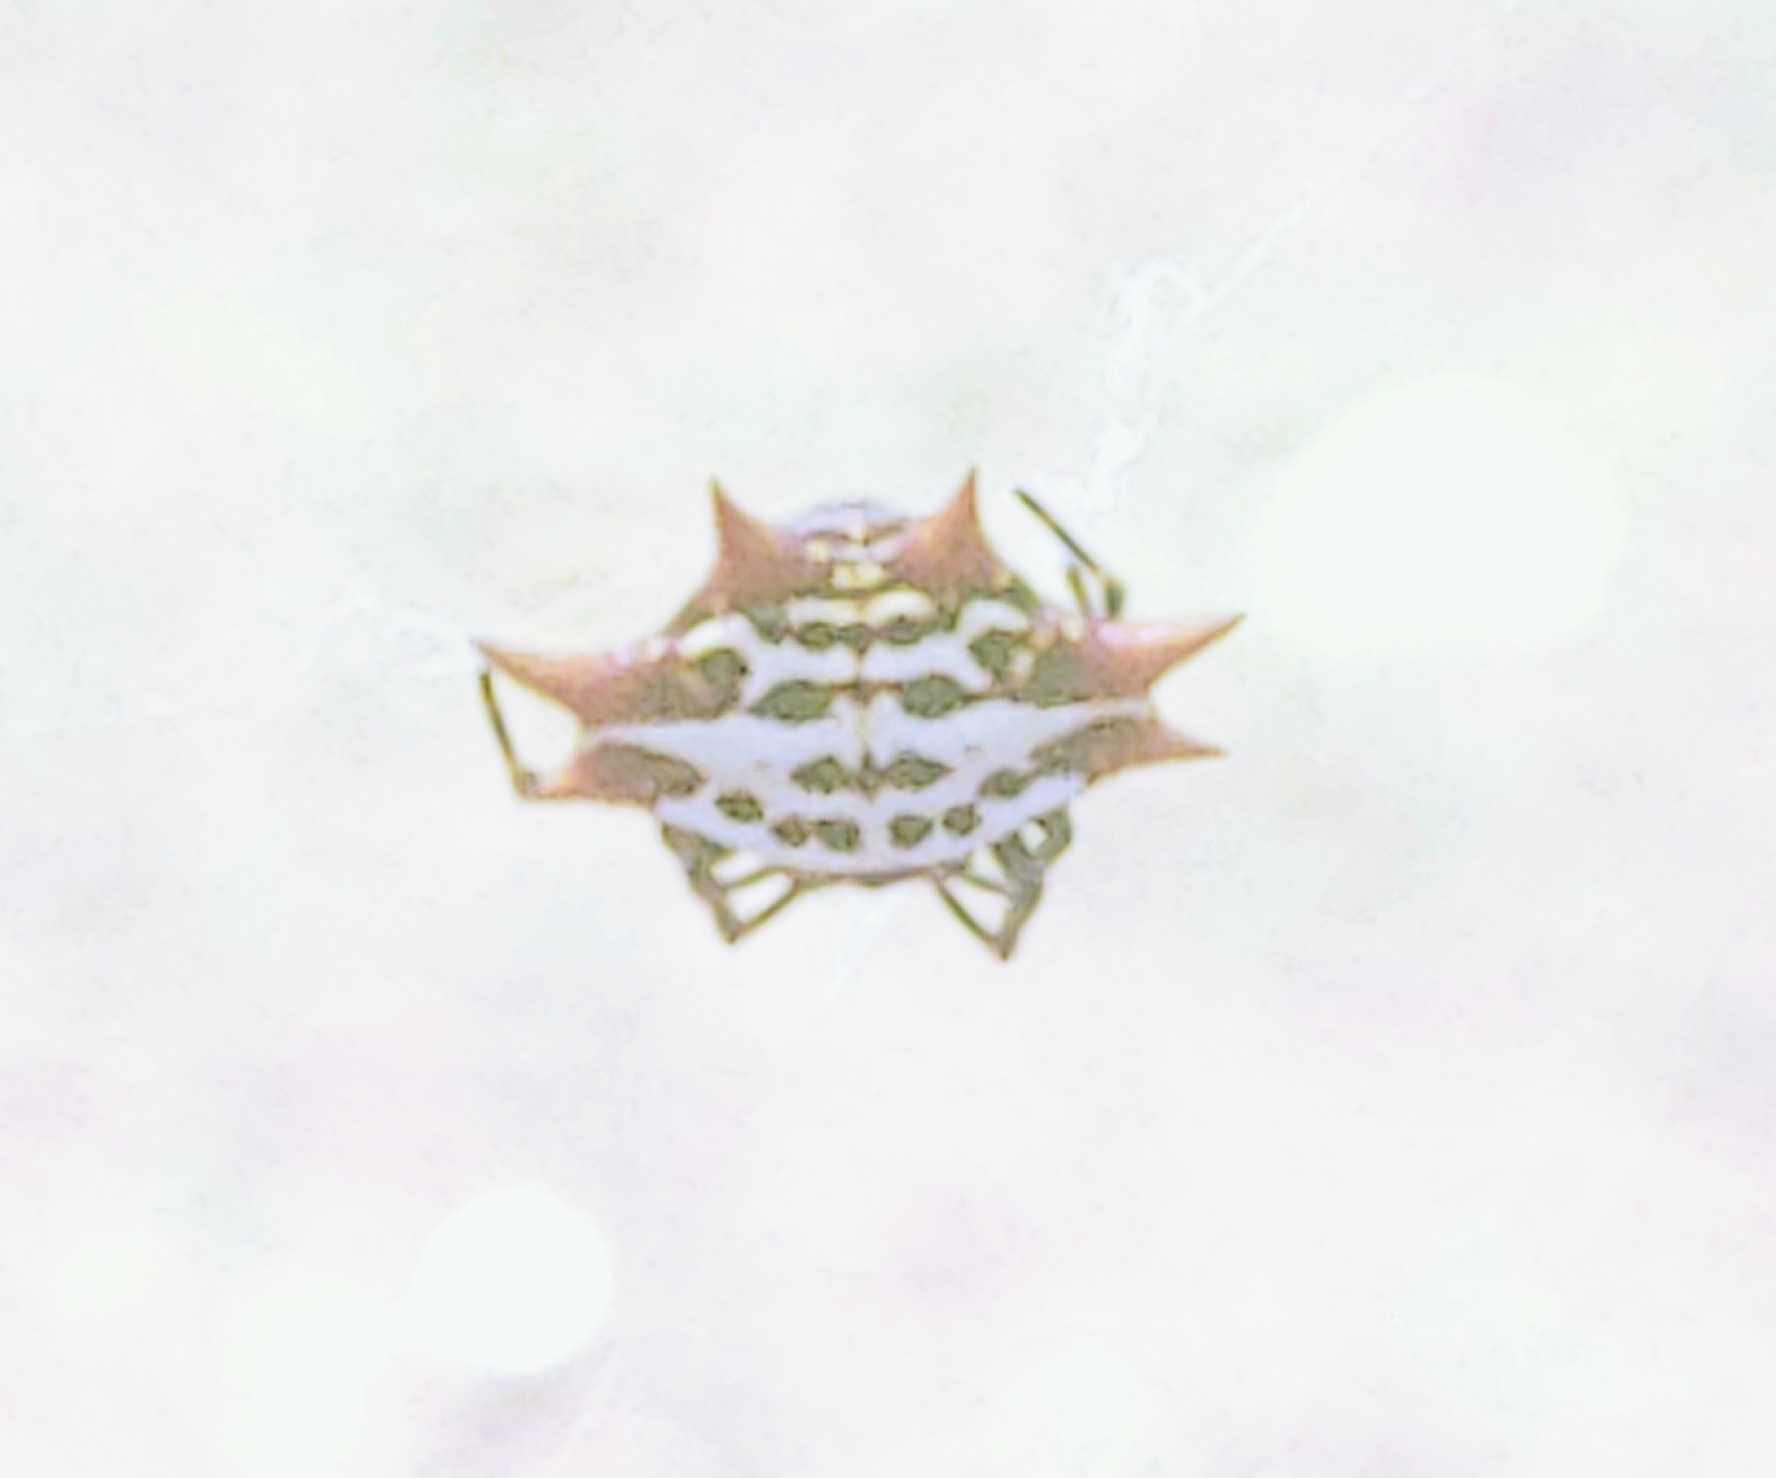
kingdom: Animalia
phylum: Arthropoda
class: Arachnida
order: Araneae
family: Araneidae
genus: Gasteracantha
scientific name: Gasteracantha cancriformis
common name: Orb weavers
